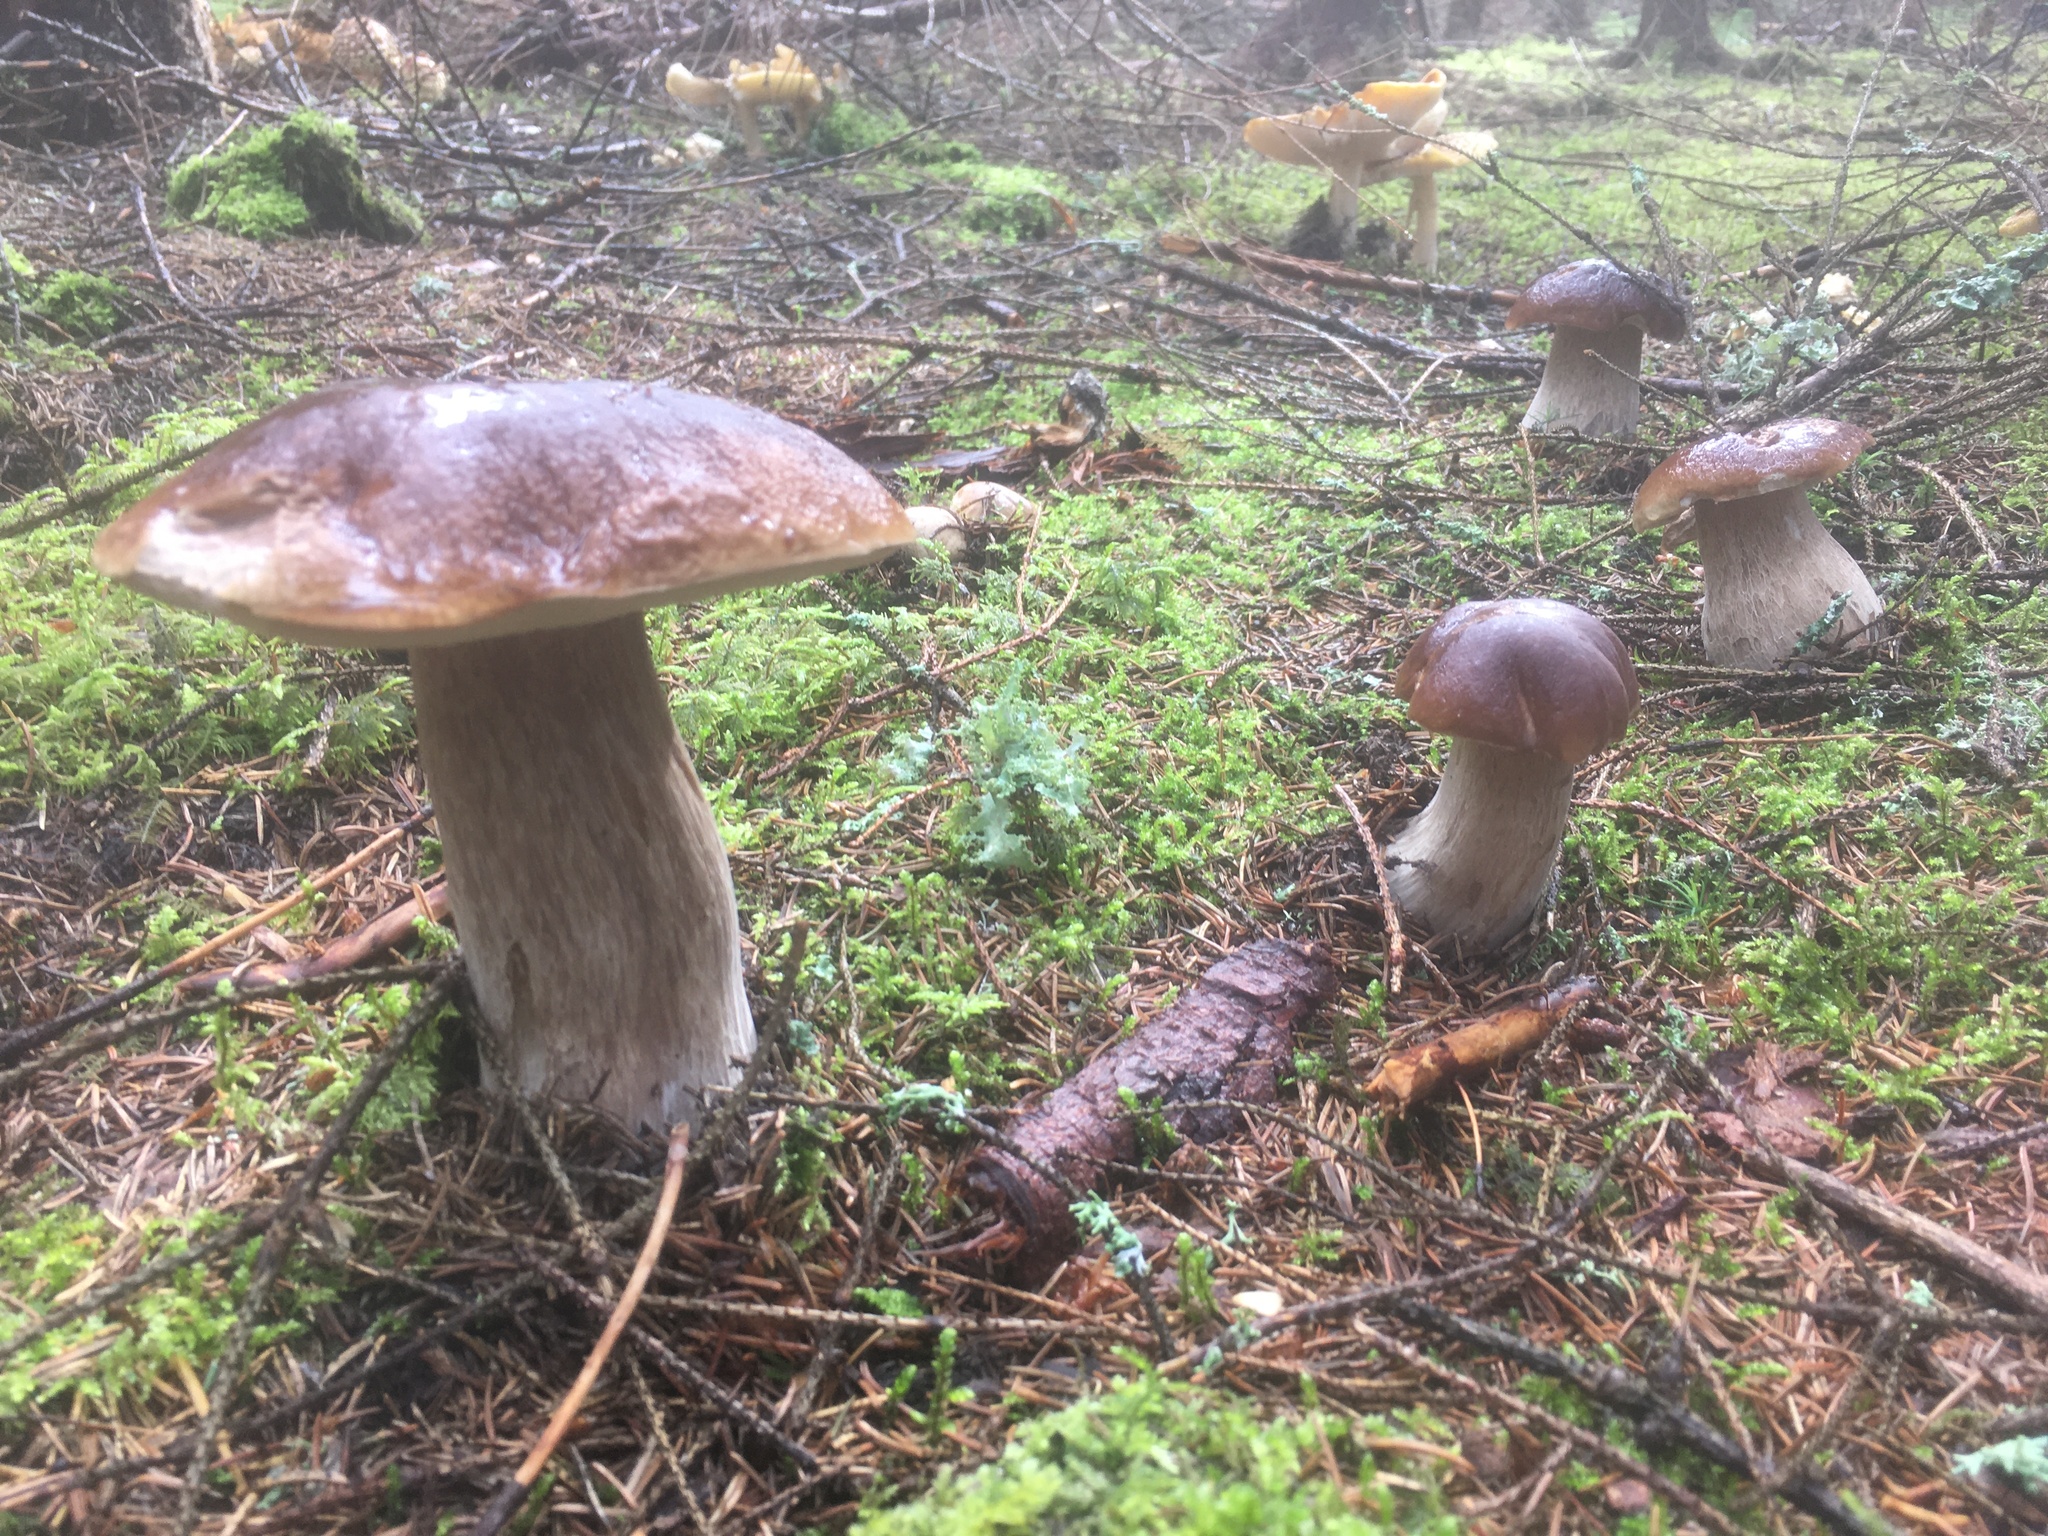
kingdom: Fungi
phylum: Basidiomycota
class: Agaricomycetes
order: Boletales
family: Boletaceae
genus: Boletus
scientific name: Boletus edulis
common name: Cep
